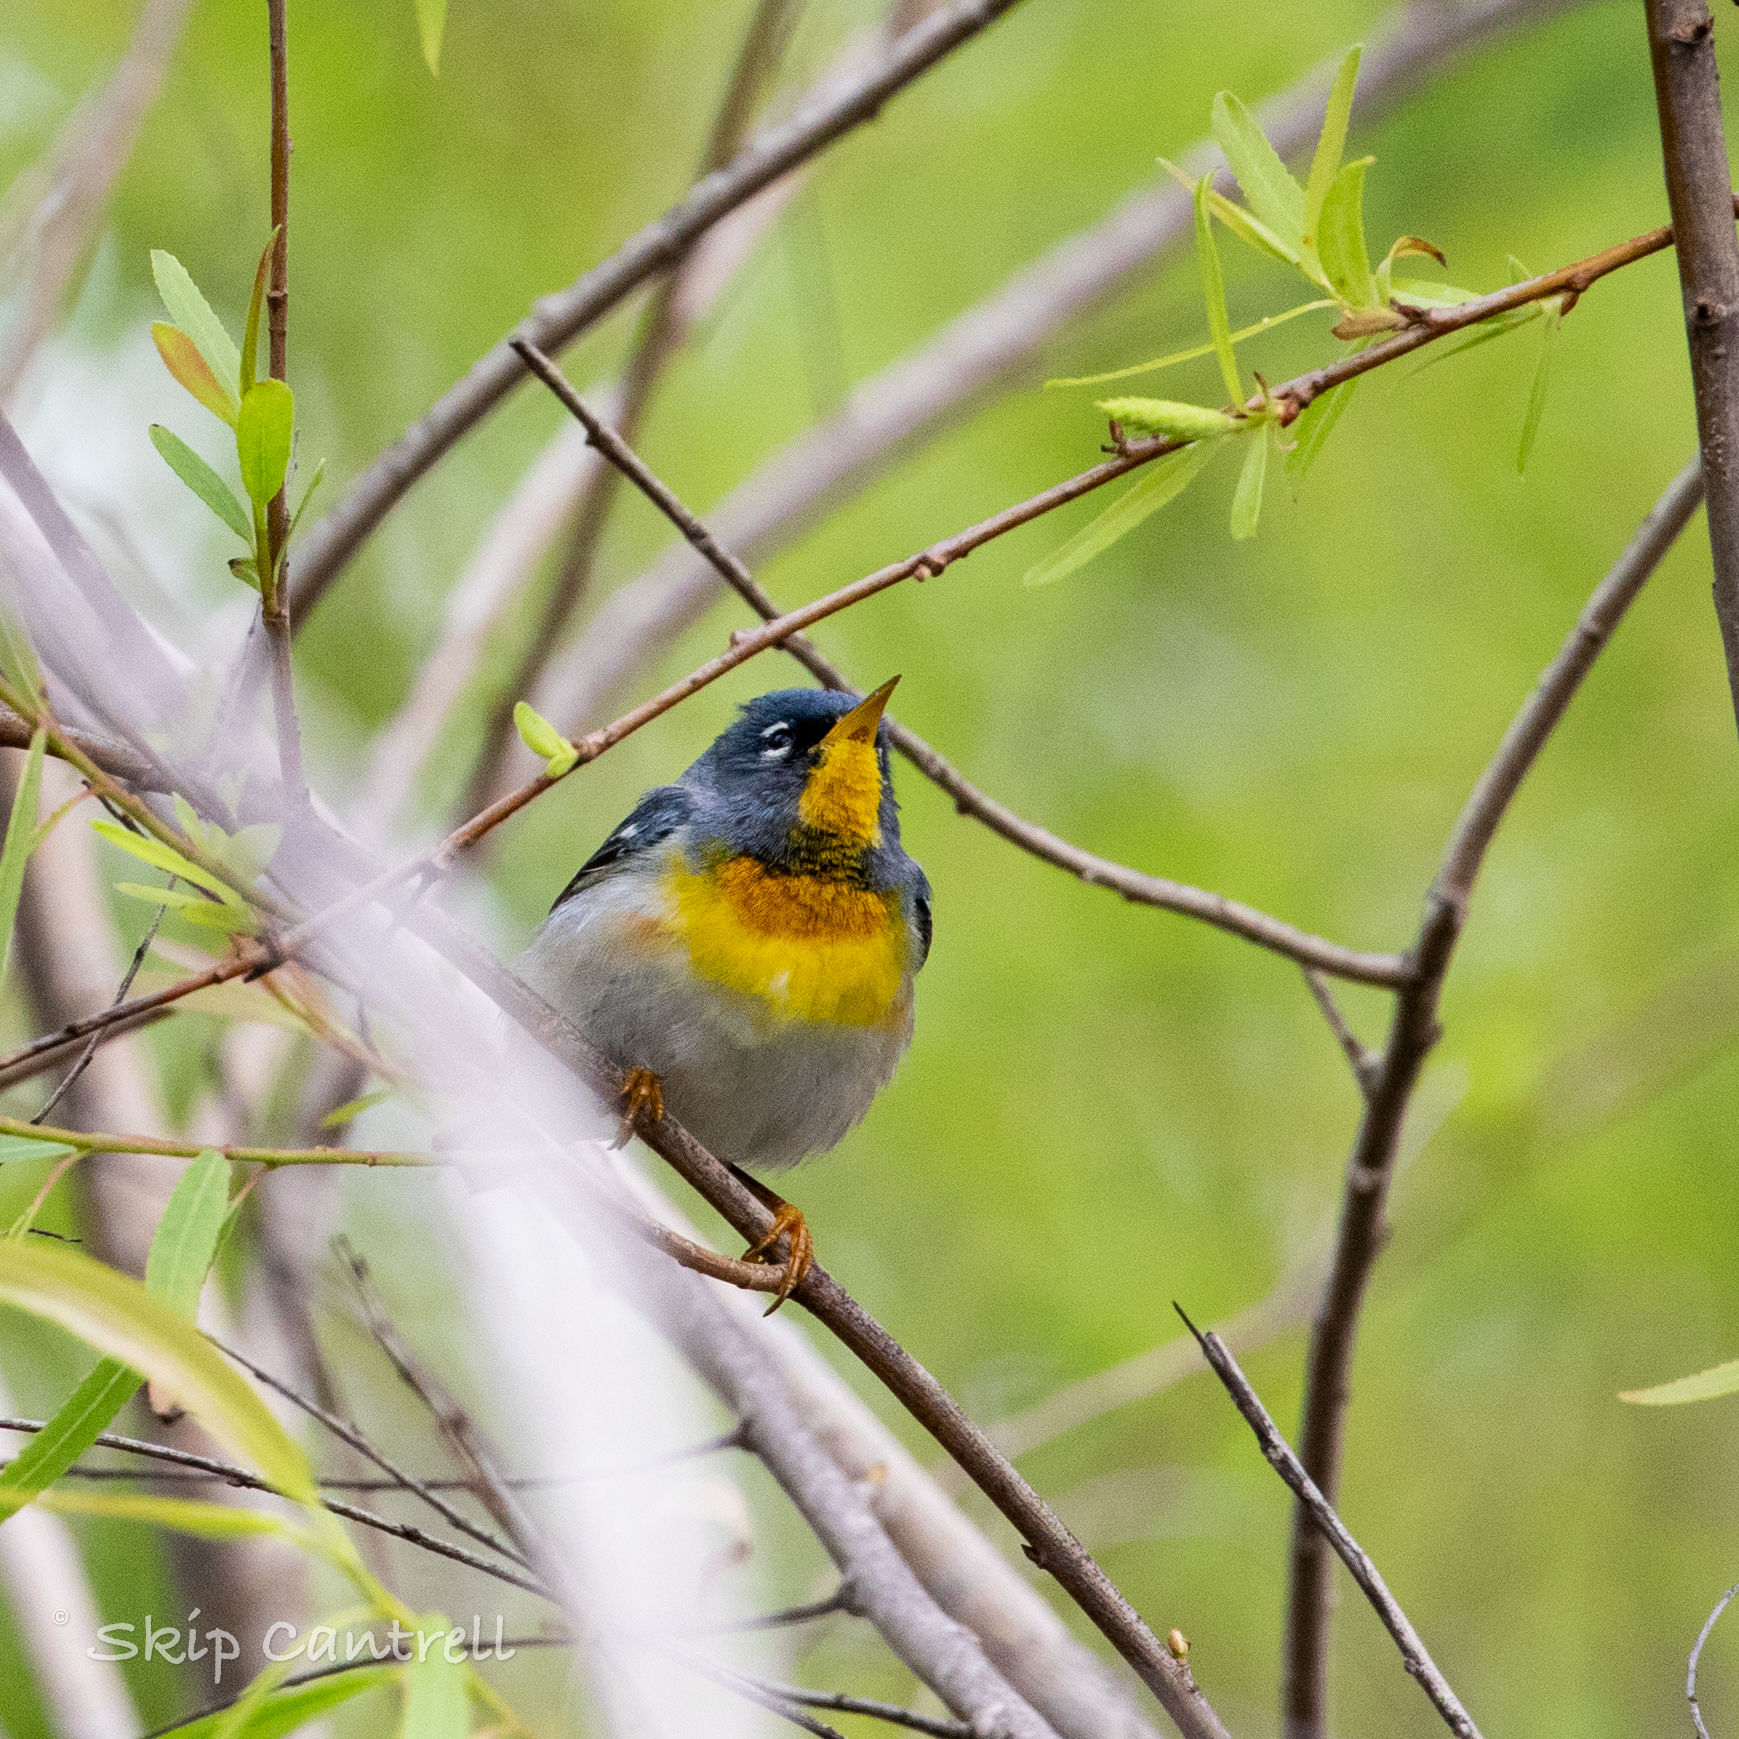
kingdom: Animalia
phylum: Chordata
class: Aves
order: Passeriformes
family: Parulidae
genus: Setophaga
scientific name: Setophaga americana
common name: Northern parula
